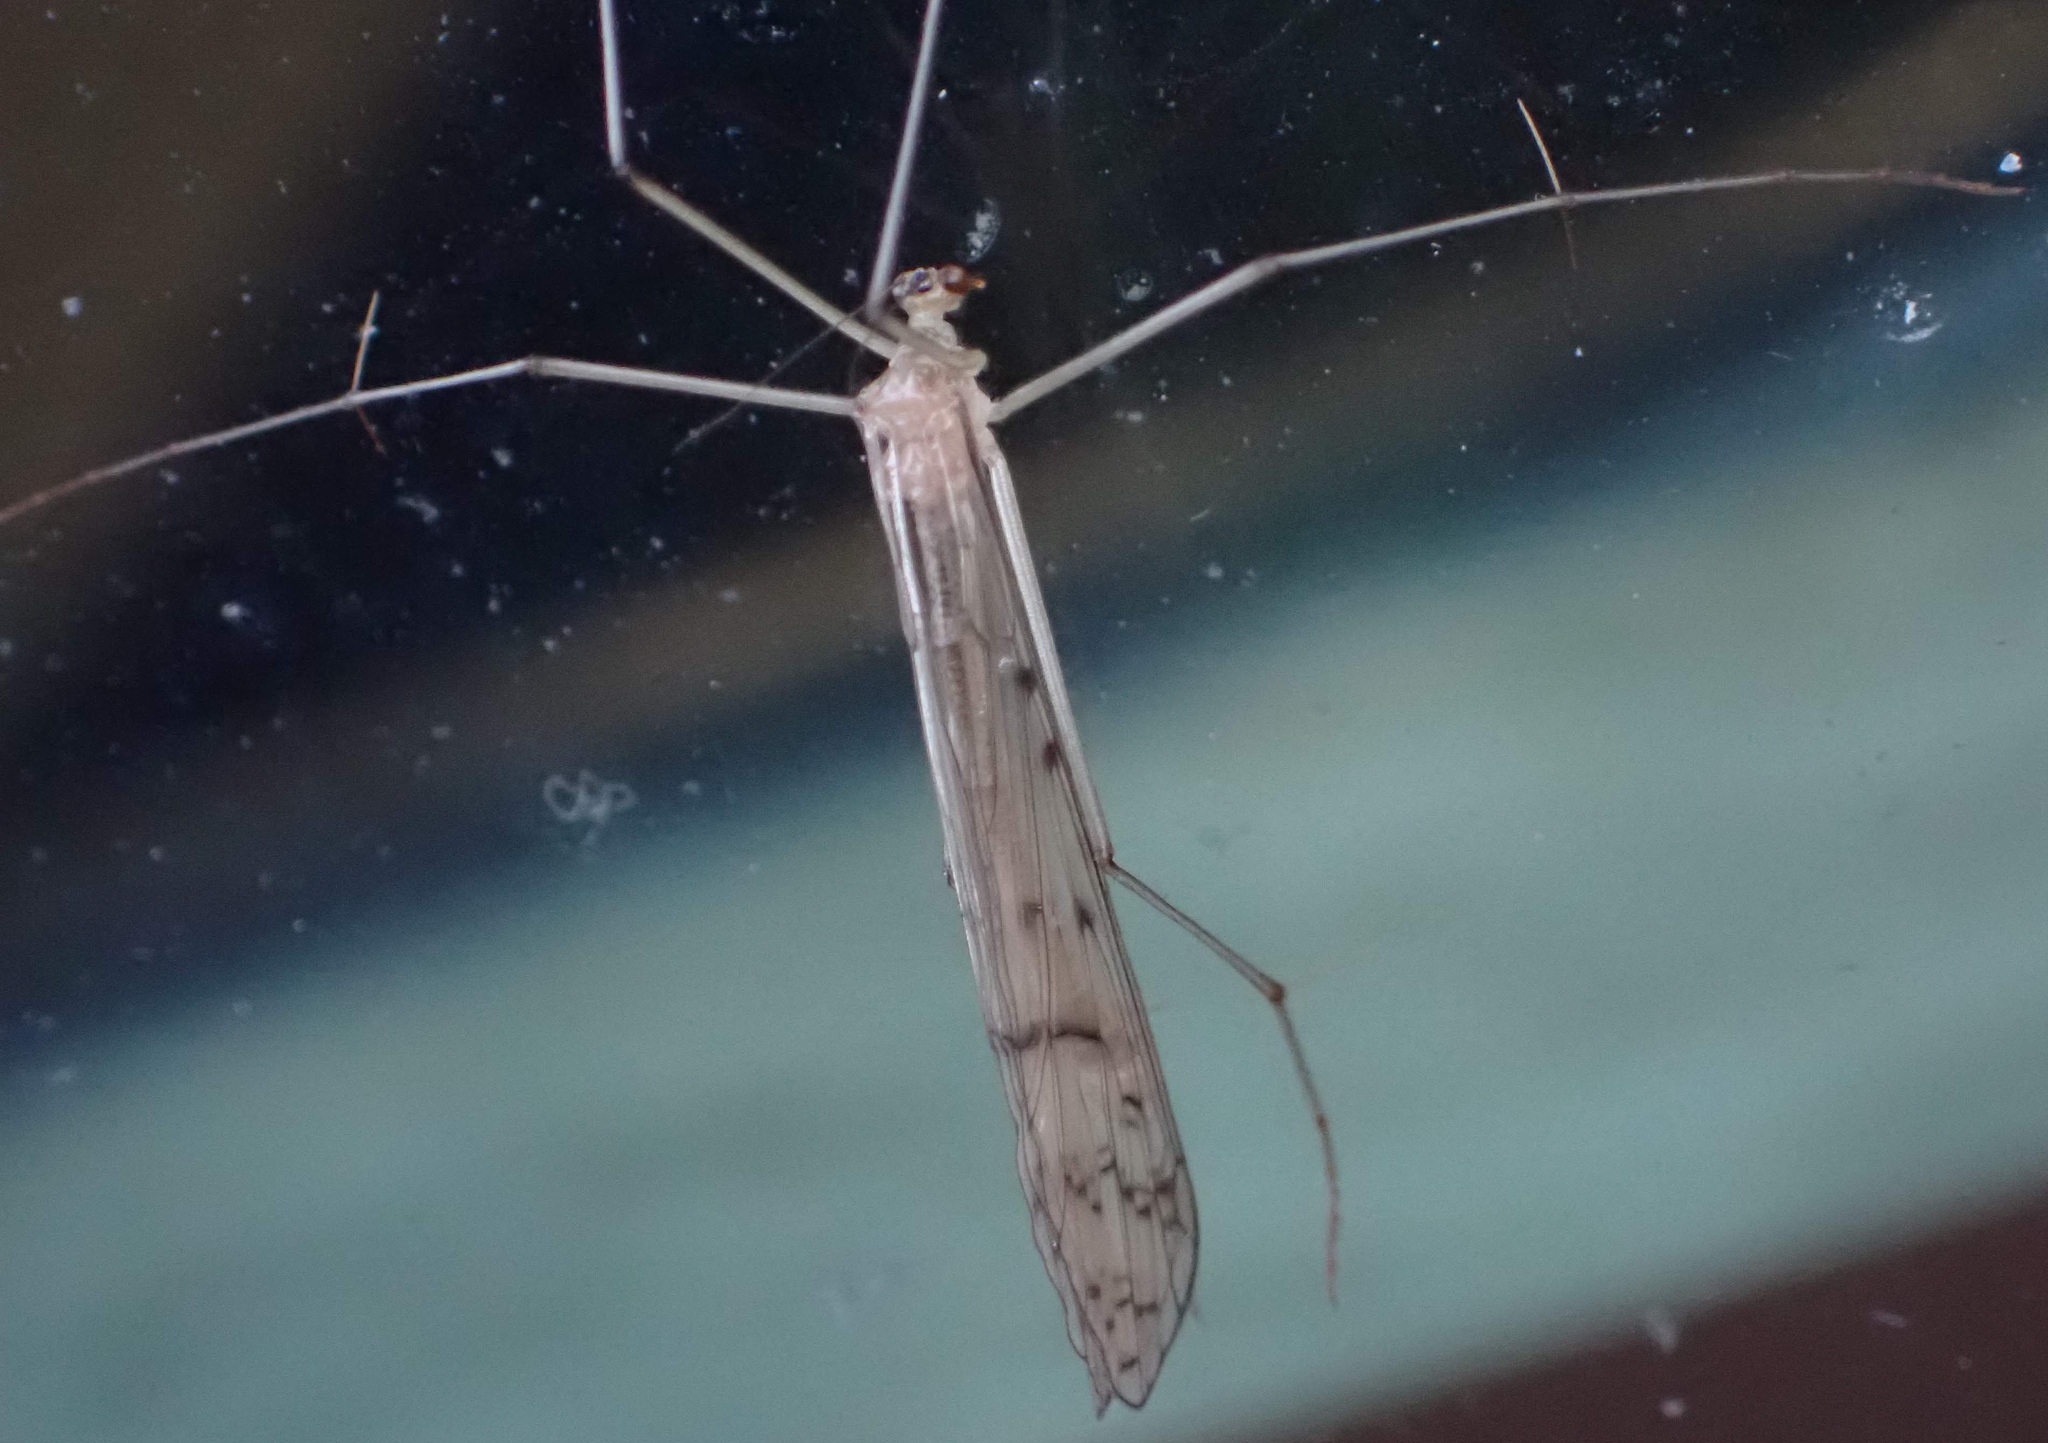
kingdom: Animalia
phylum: Arthropoda
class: Insecta
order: Mecoptera
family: Bittacidae
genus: Bittacus
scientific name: Bittacus strigosus
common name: Thin hangingfly
